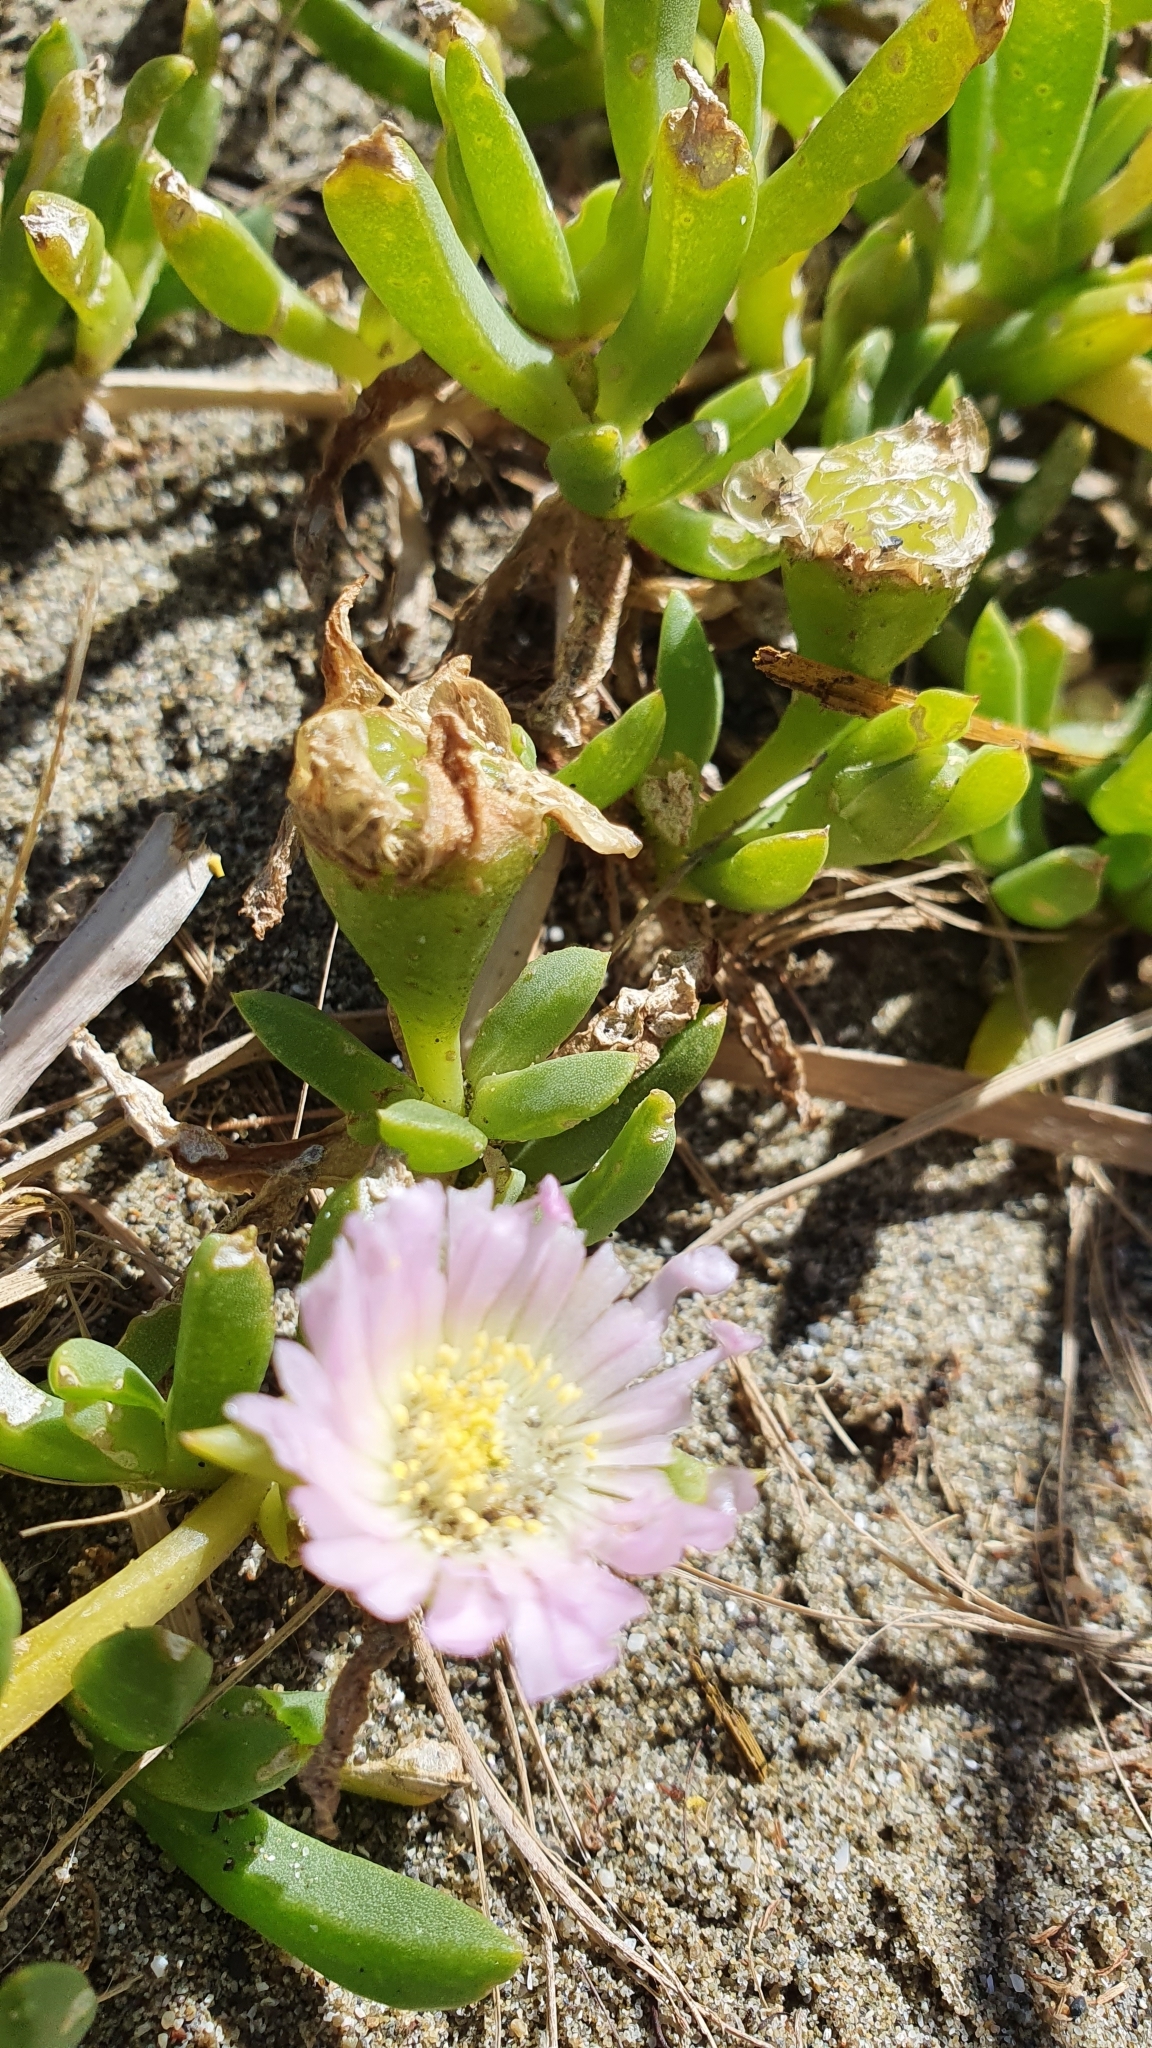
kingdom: Plantae
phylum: Tracheophyta
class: Magnoliopsida
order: Caryophyllales
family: Aizoaceae
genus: Disphyma
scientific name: Disphyma australe
